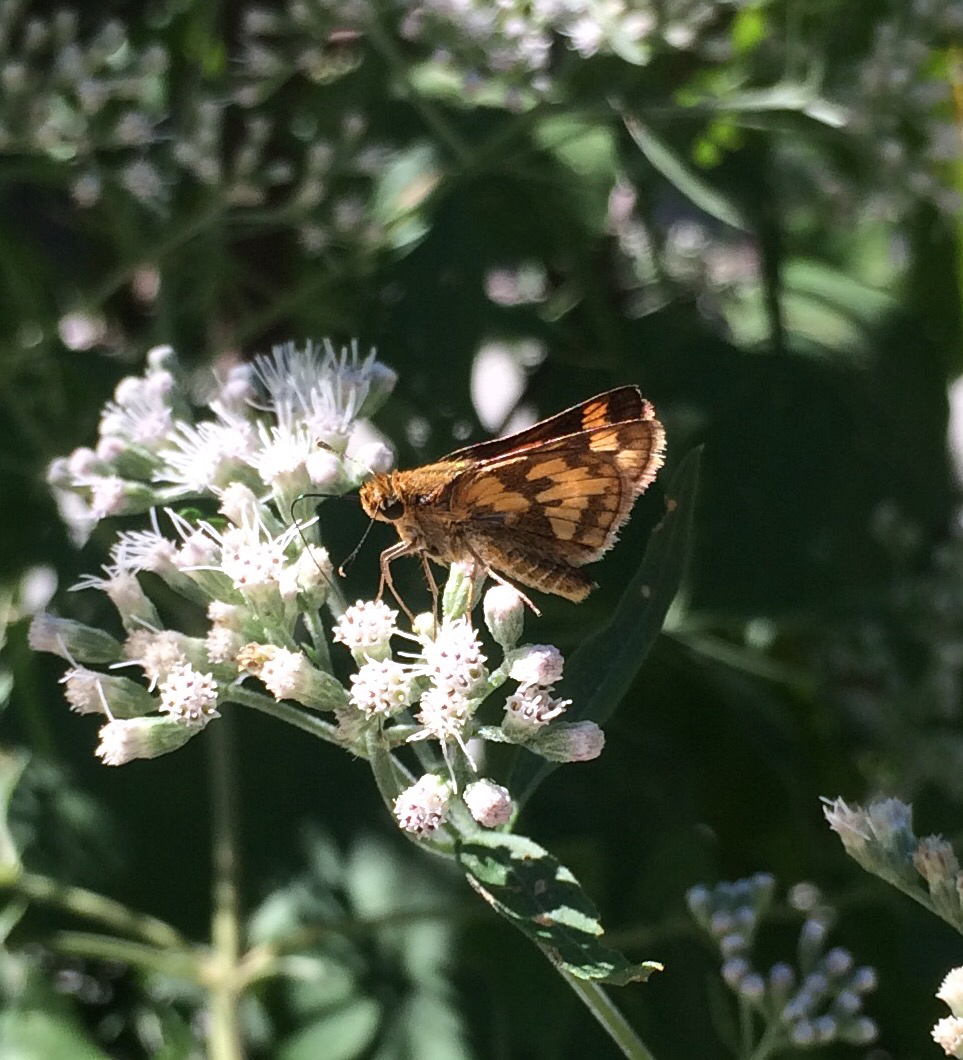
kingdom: Animalia
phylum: Arthropoda
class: Insecta
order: Lepidoptera
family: Hesperiidae
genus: Polites
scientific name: Polites coras
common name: Peck's skipper
